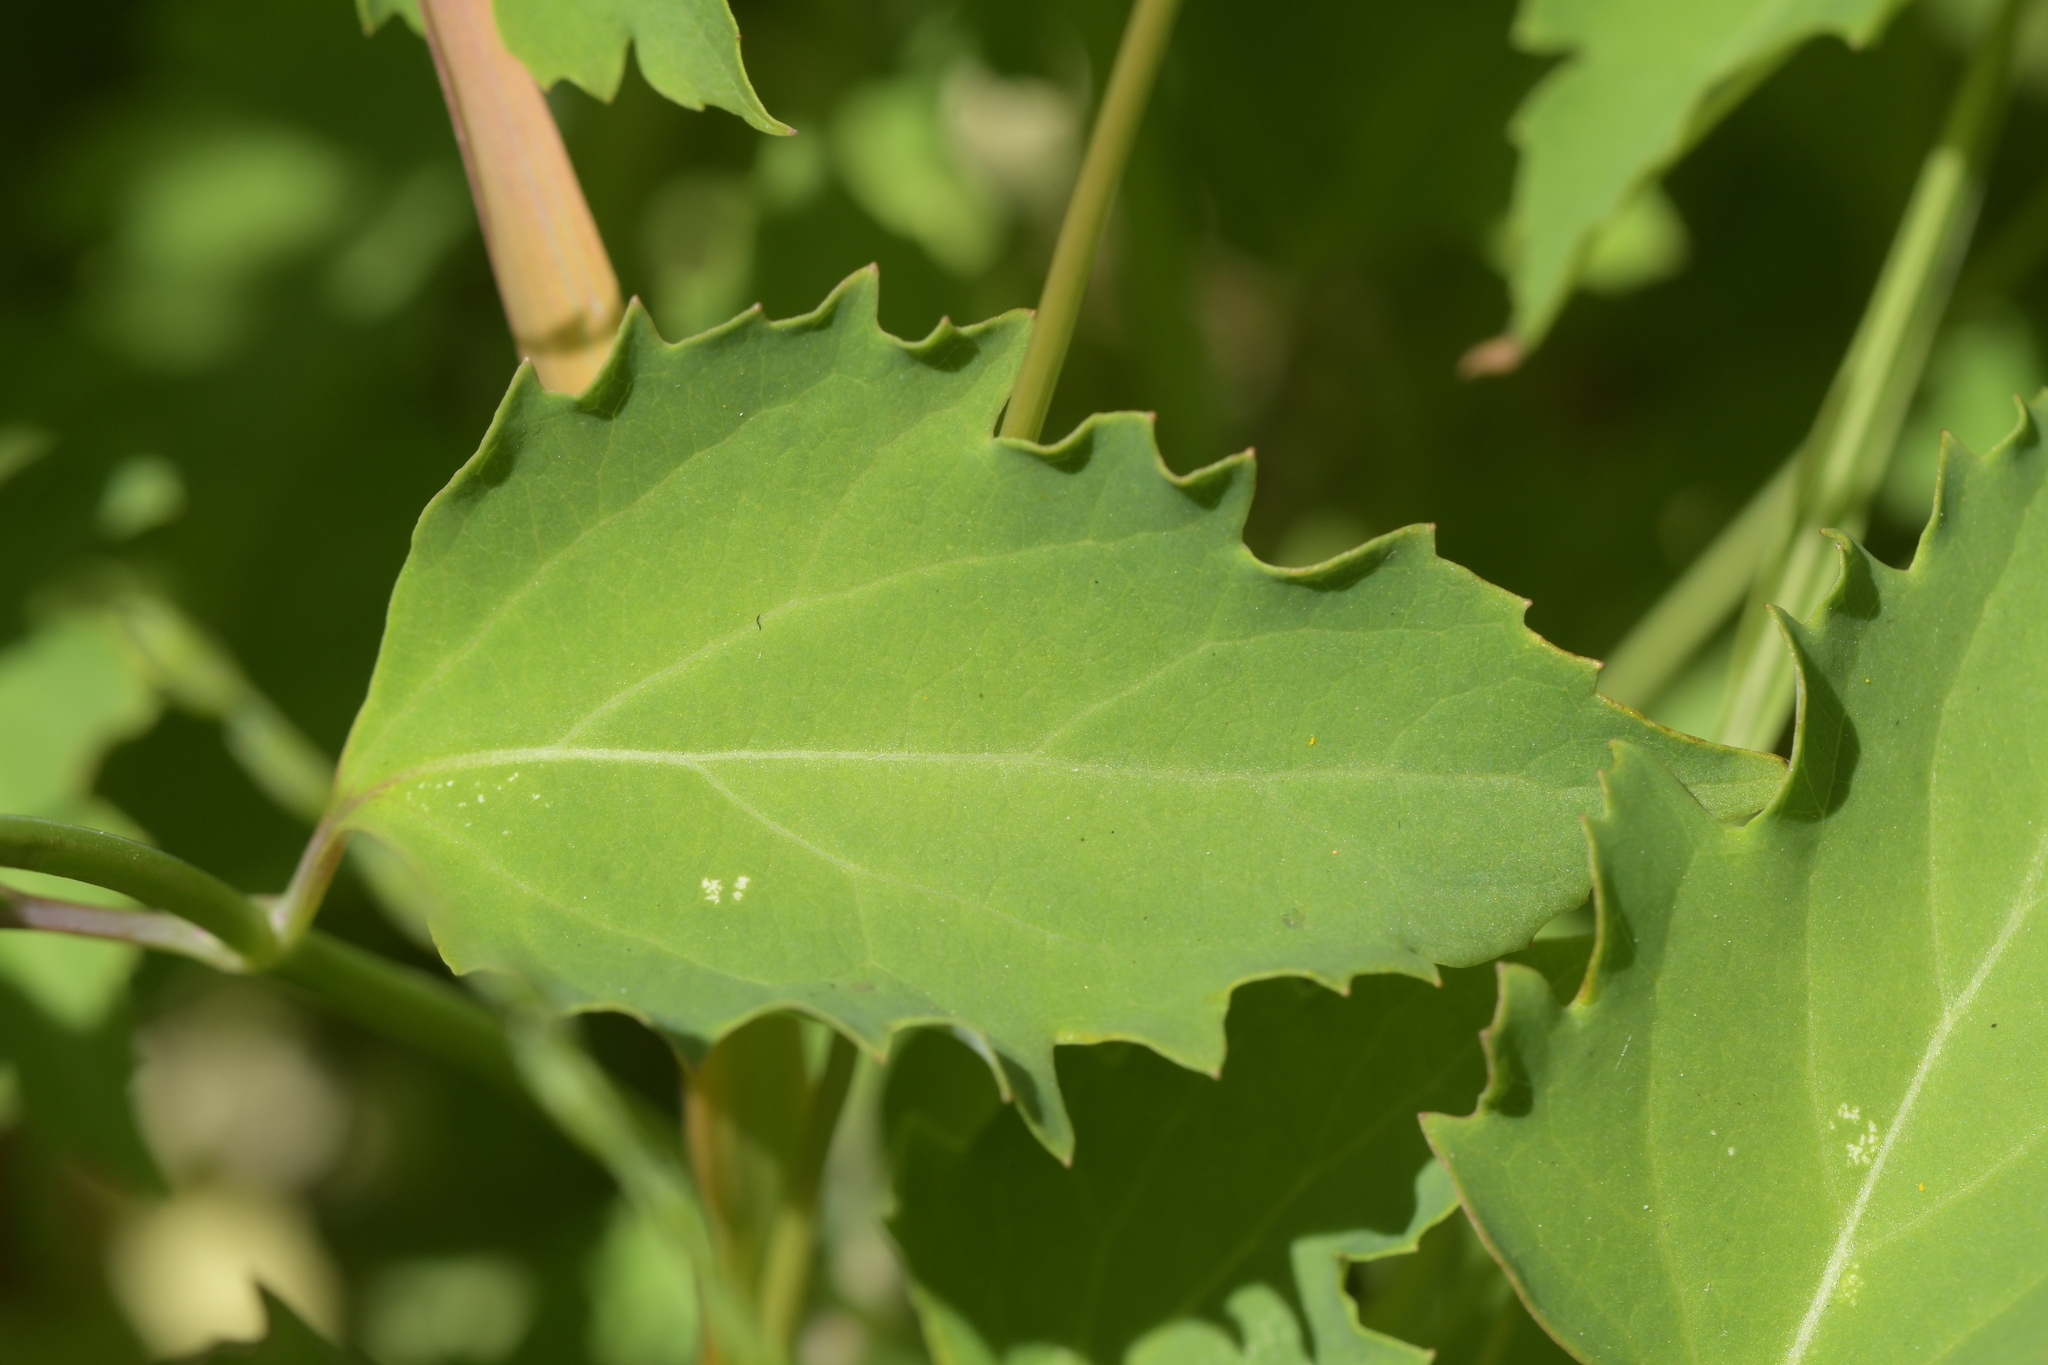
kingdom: Plantae
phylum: Tracheophyta
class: Magnoliopsida
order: Dipsacales
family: Caprifoliaceae
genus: Leycesteria
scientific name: Leycesteria formosa
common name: Himalayan honeysuckle
